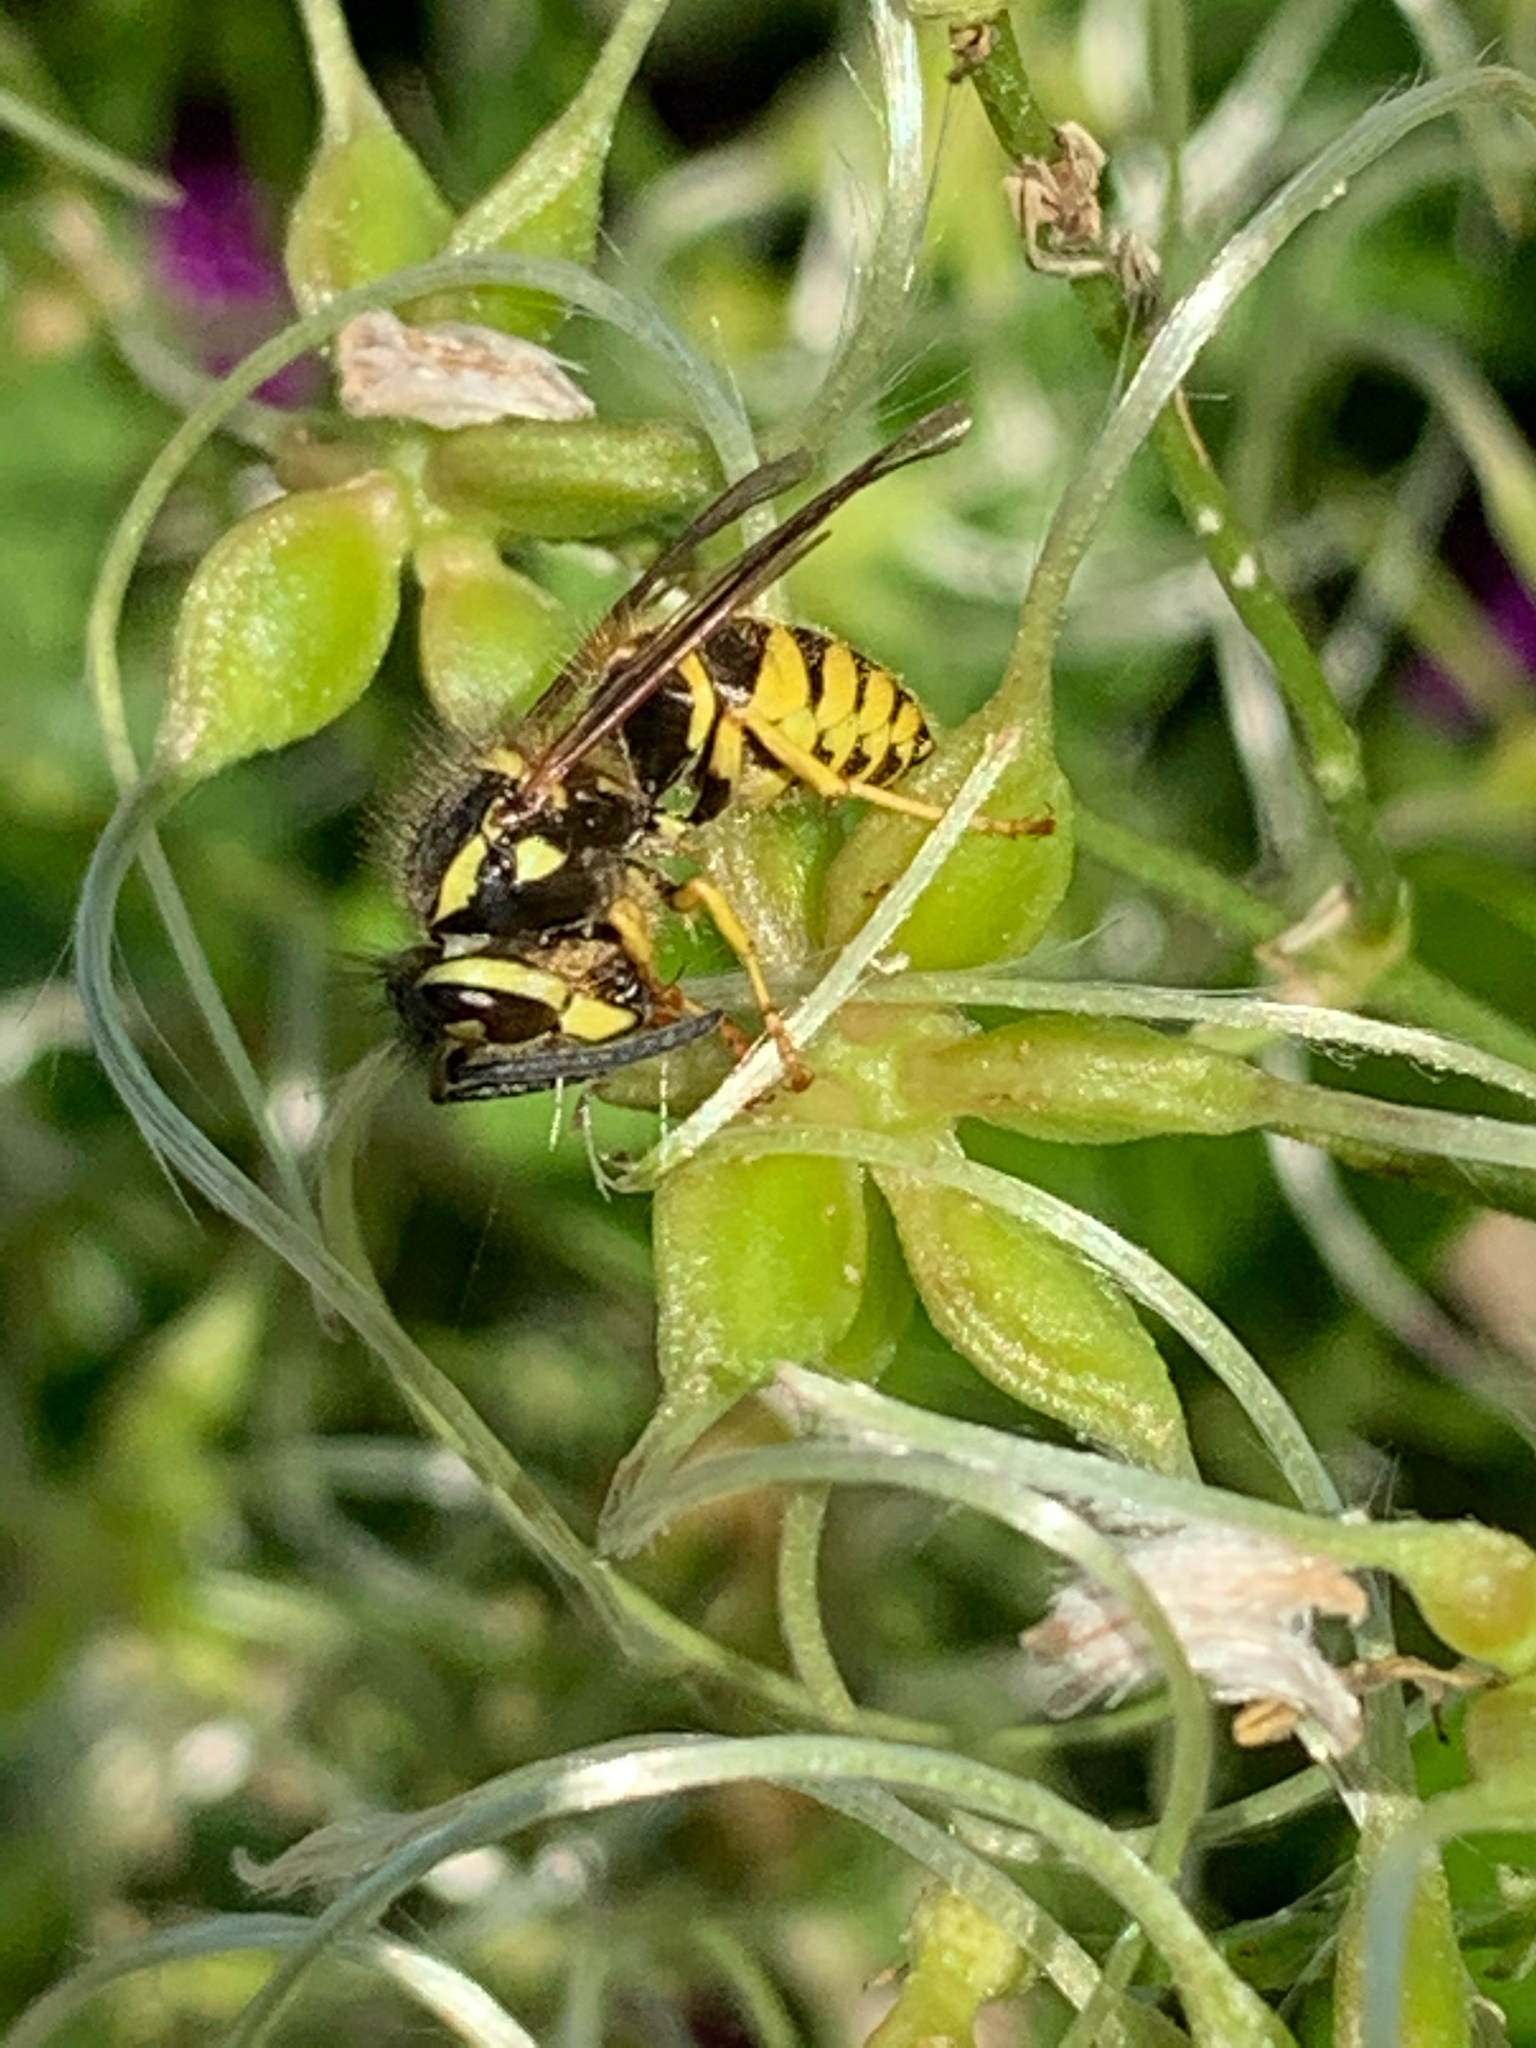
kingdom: Animalia
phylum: Arthropoda
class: Insecta
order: Hymenoptera
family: Vespidae
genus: Vespula
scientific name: Vespula
